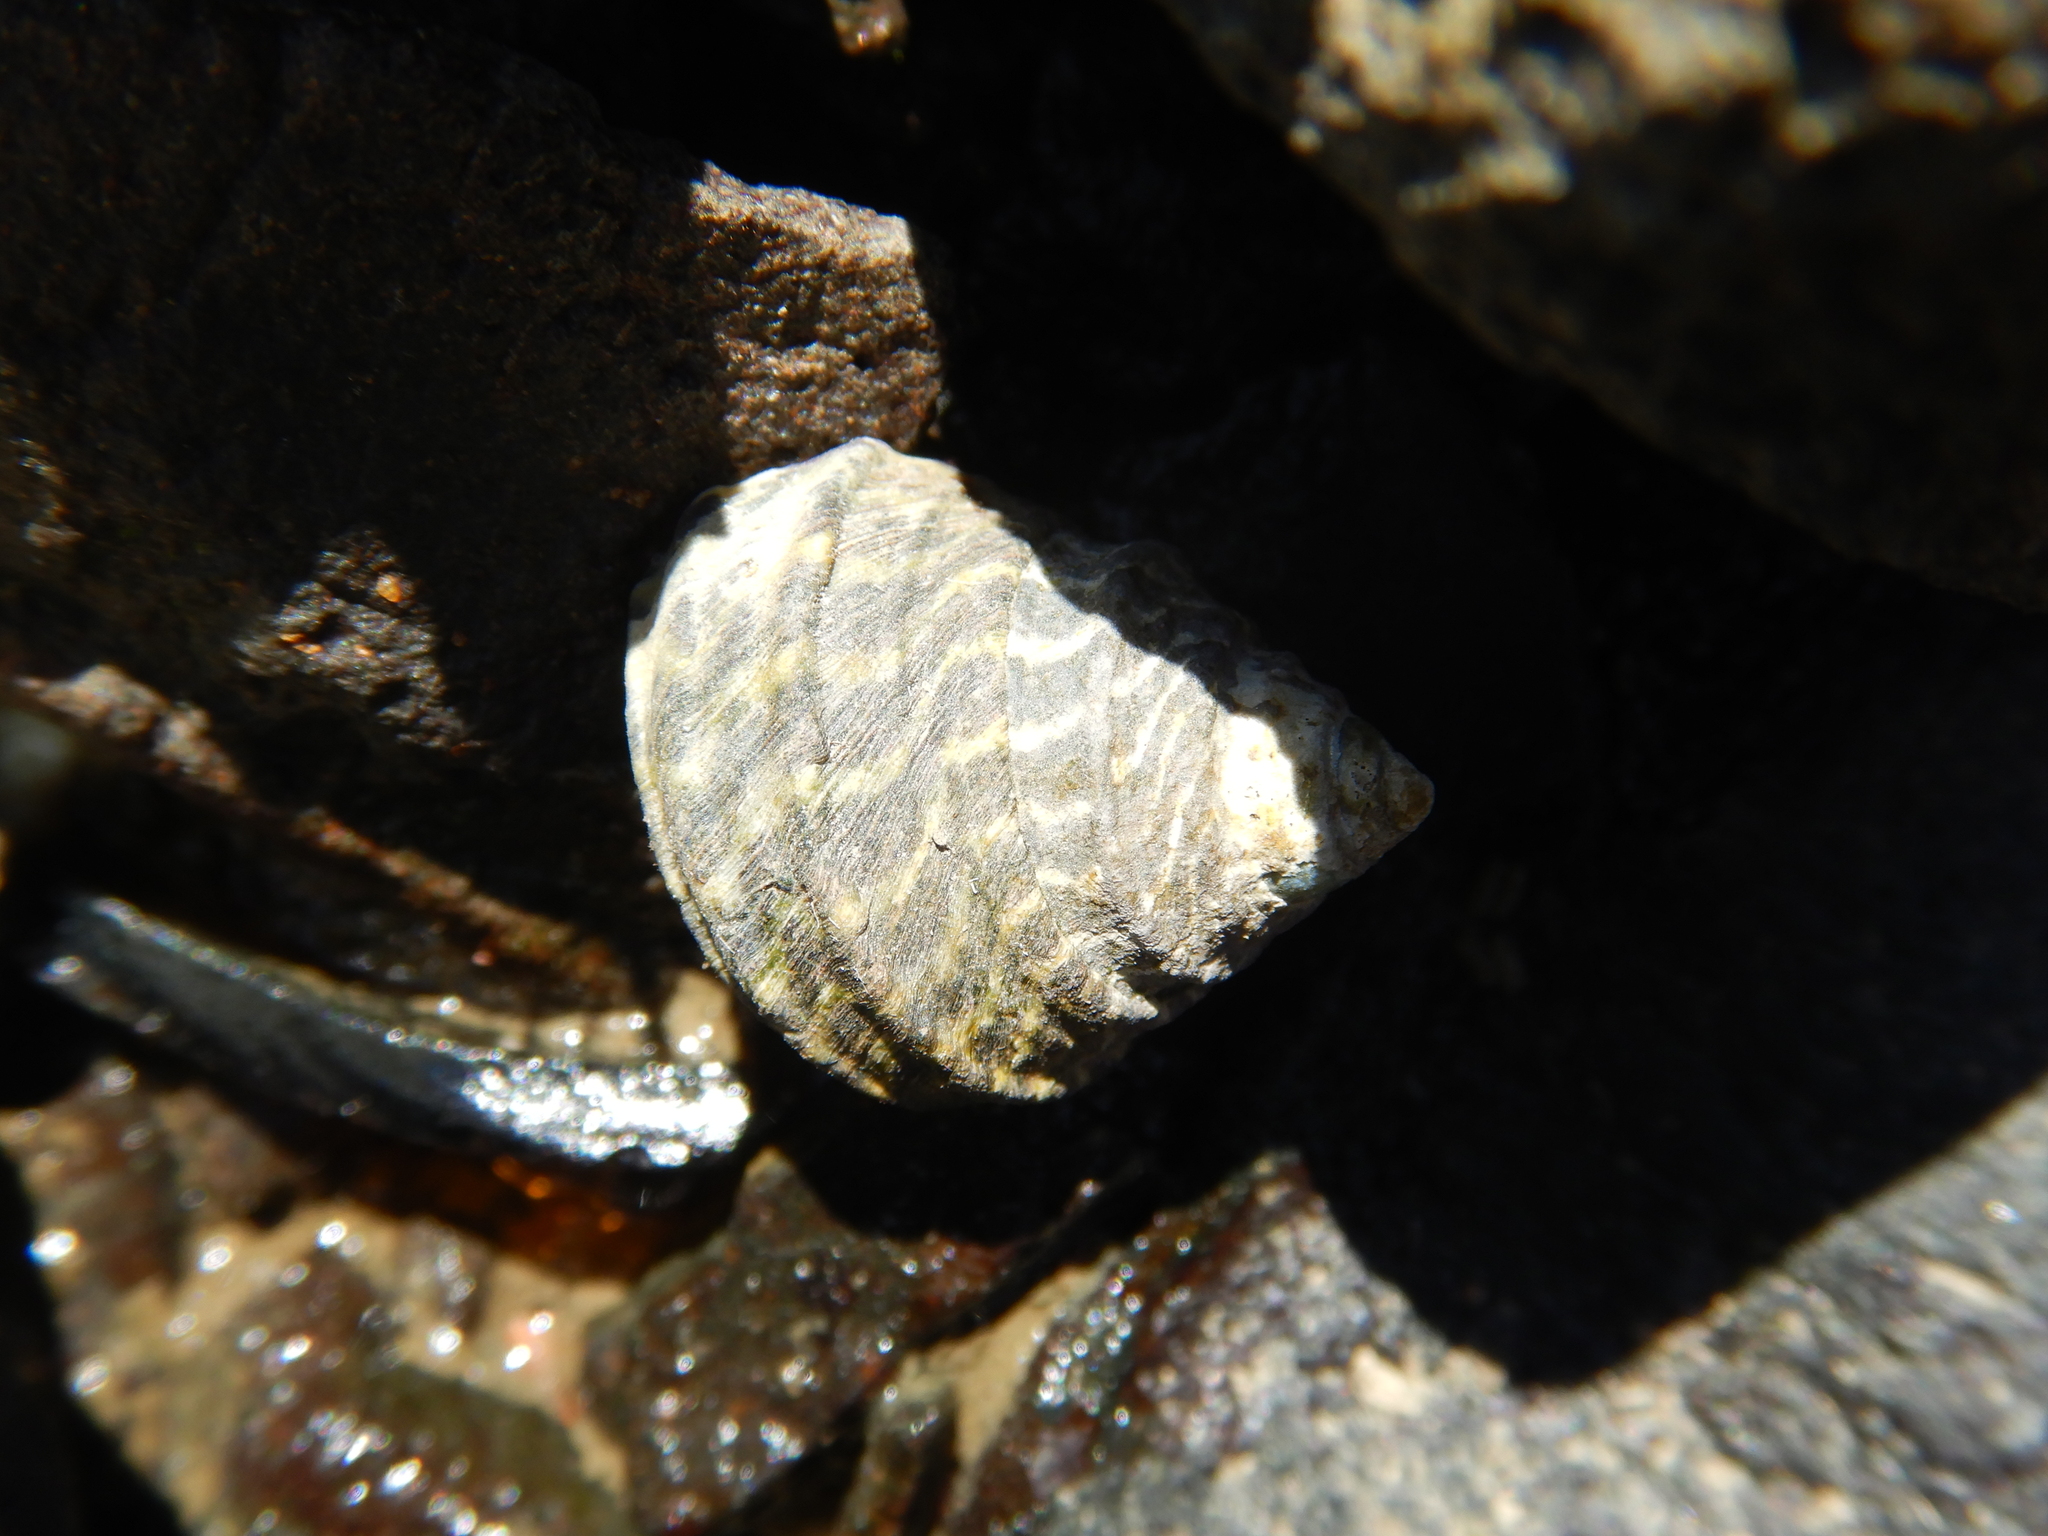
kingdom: Animalia
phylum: Mollusca
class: Gastropoda
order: Trochida
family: Trochidae
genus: Austrocochlea
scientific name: Austrocochlea constricta
